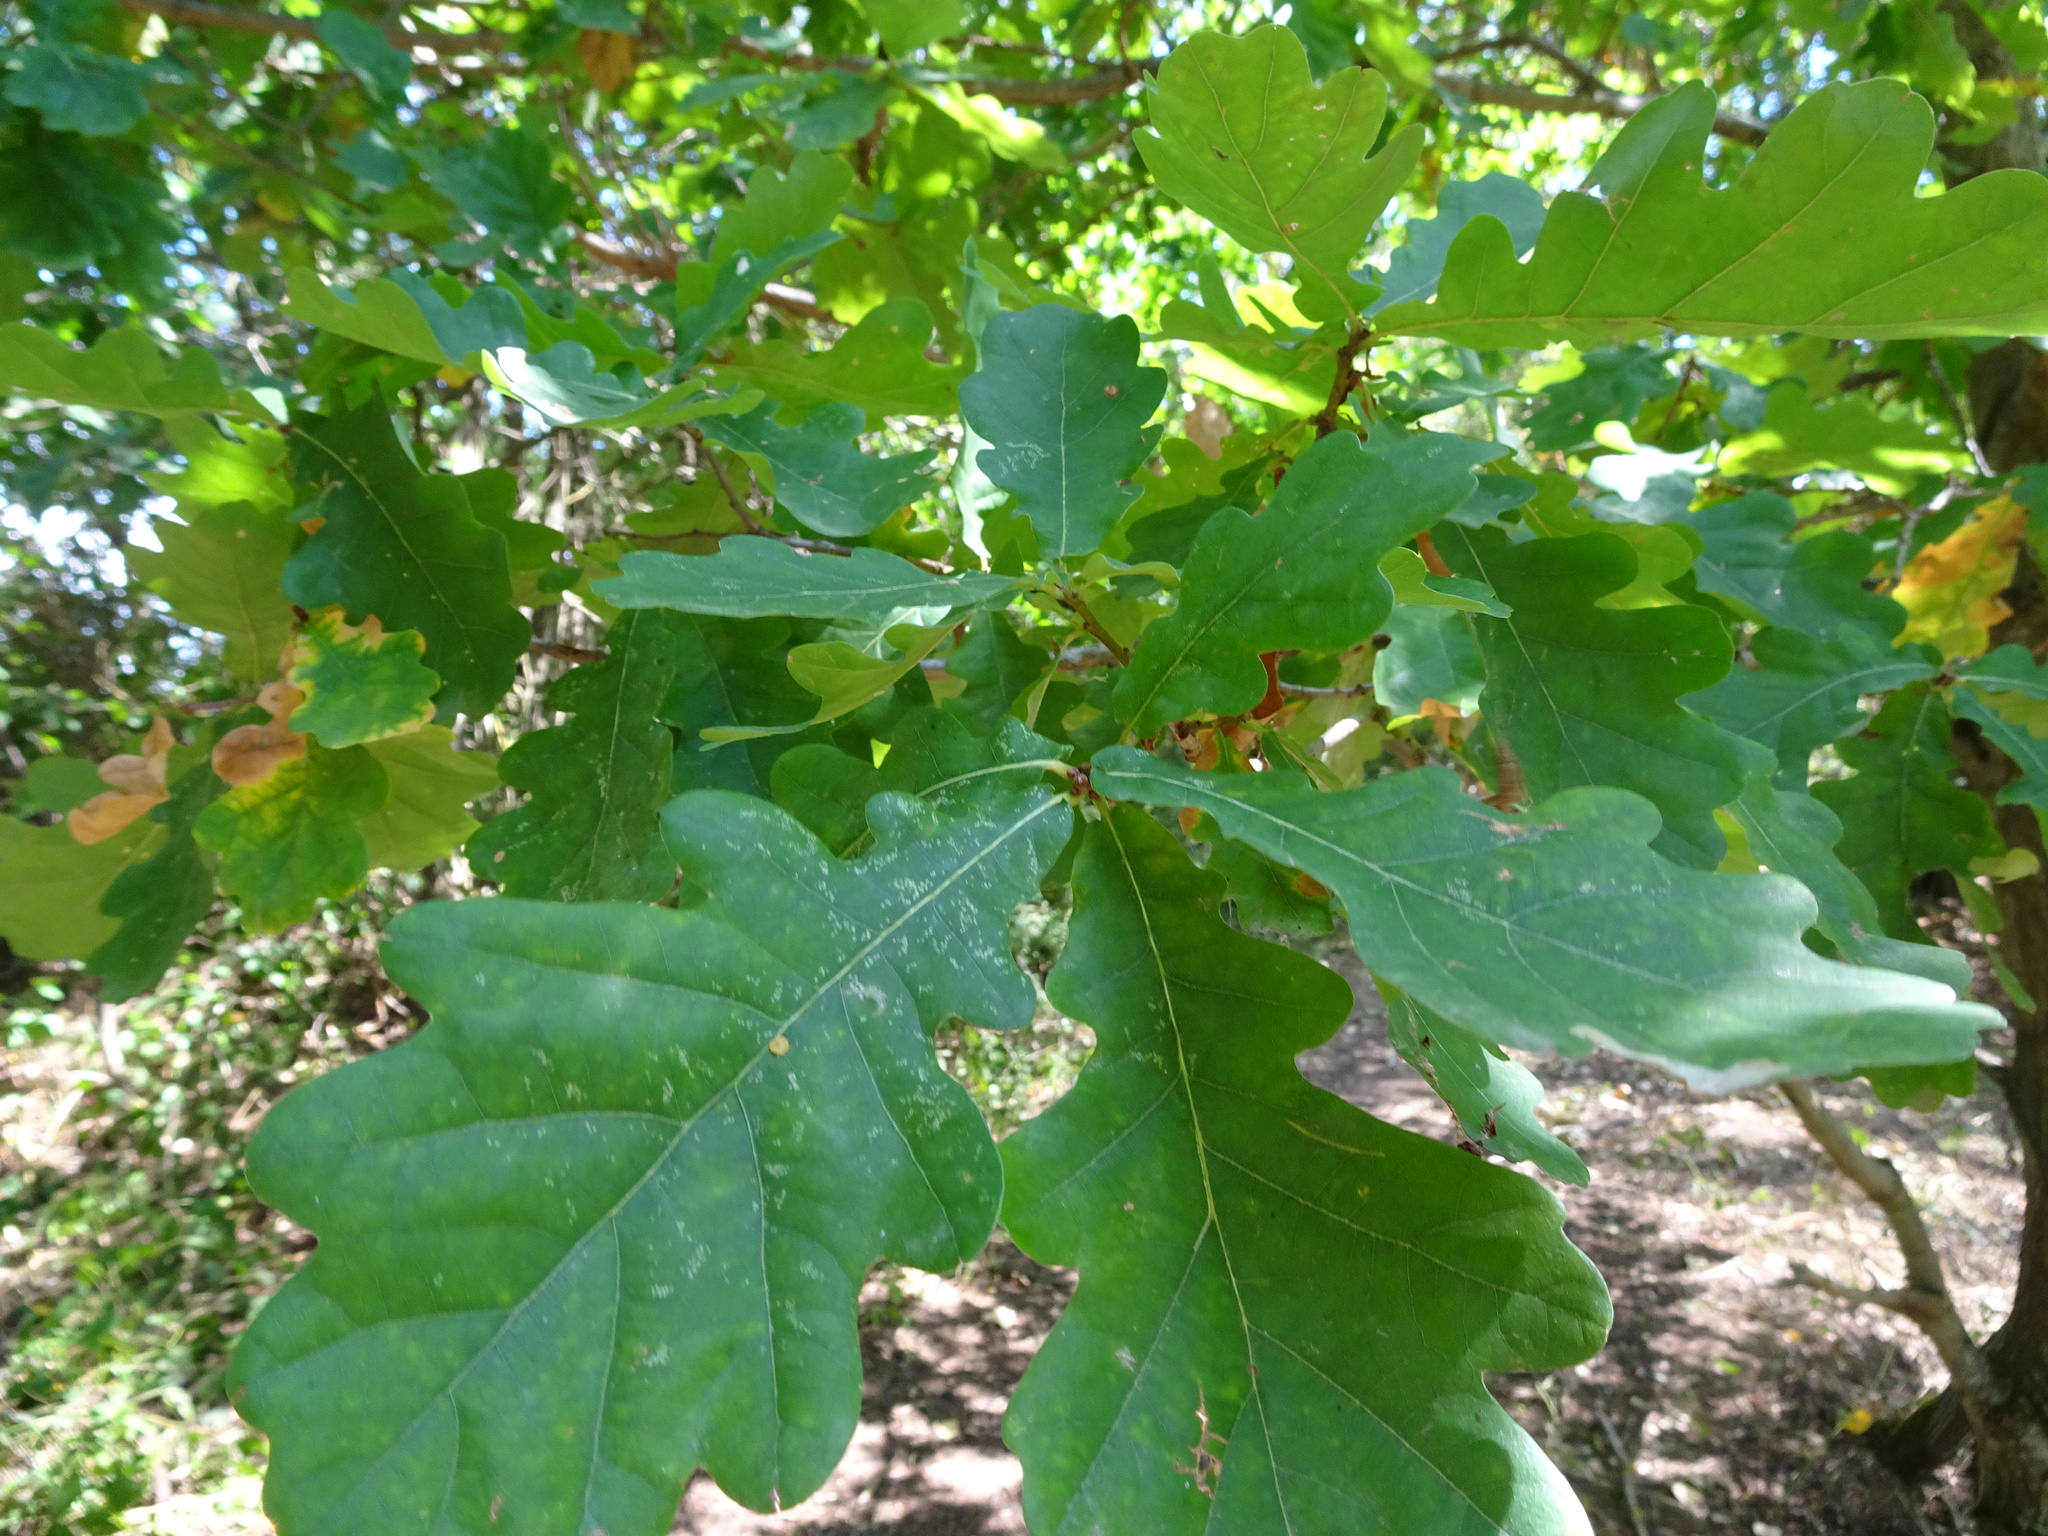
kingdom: Plantae
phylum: Tracheophyta
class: Magnoliopsida
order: Fagales
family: Fagaceae
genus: Quercus
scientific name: Quercus robur
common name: Pedunculate oak
